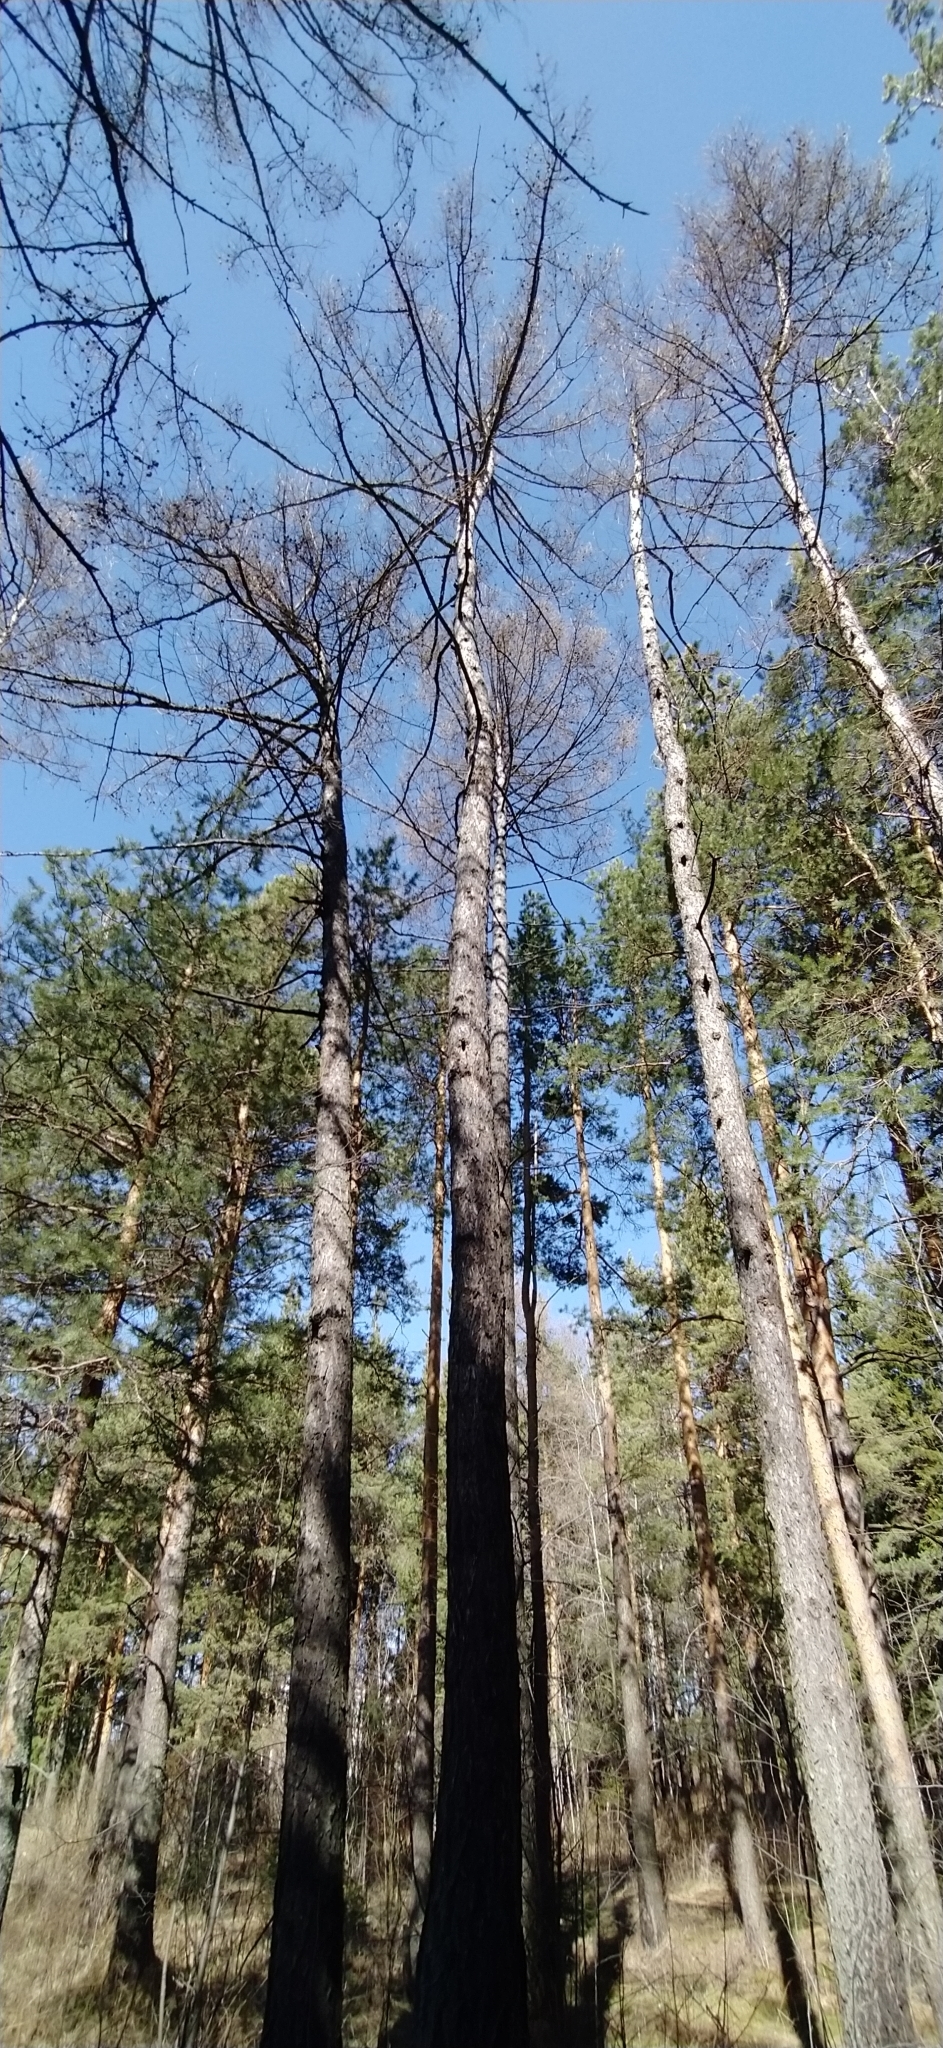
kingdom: Plantae
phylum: Tracheophyta
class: Pinopsida
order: Pinales
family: Pinaceae
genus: Larix
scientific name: Larix sibirica
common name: Siberian larch
